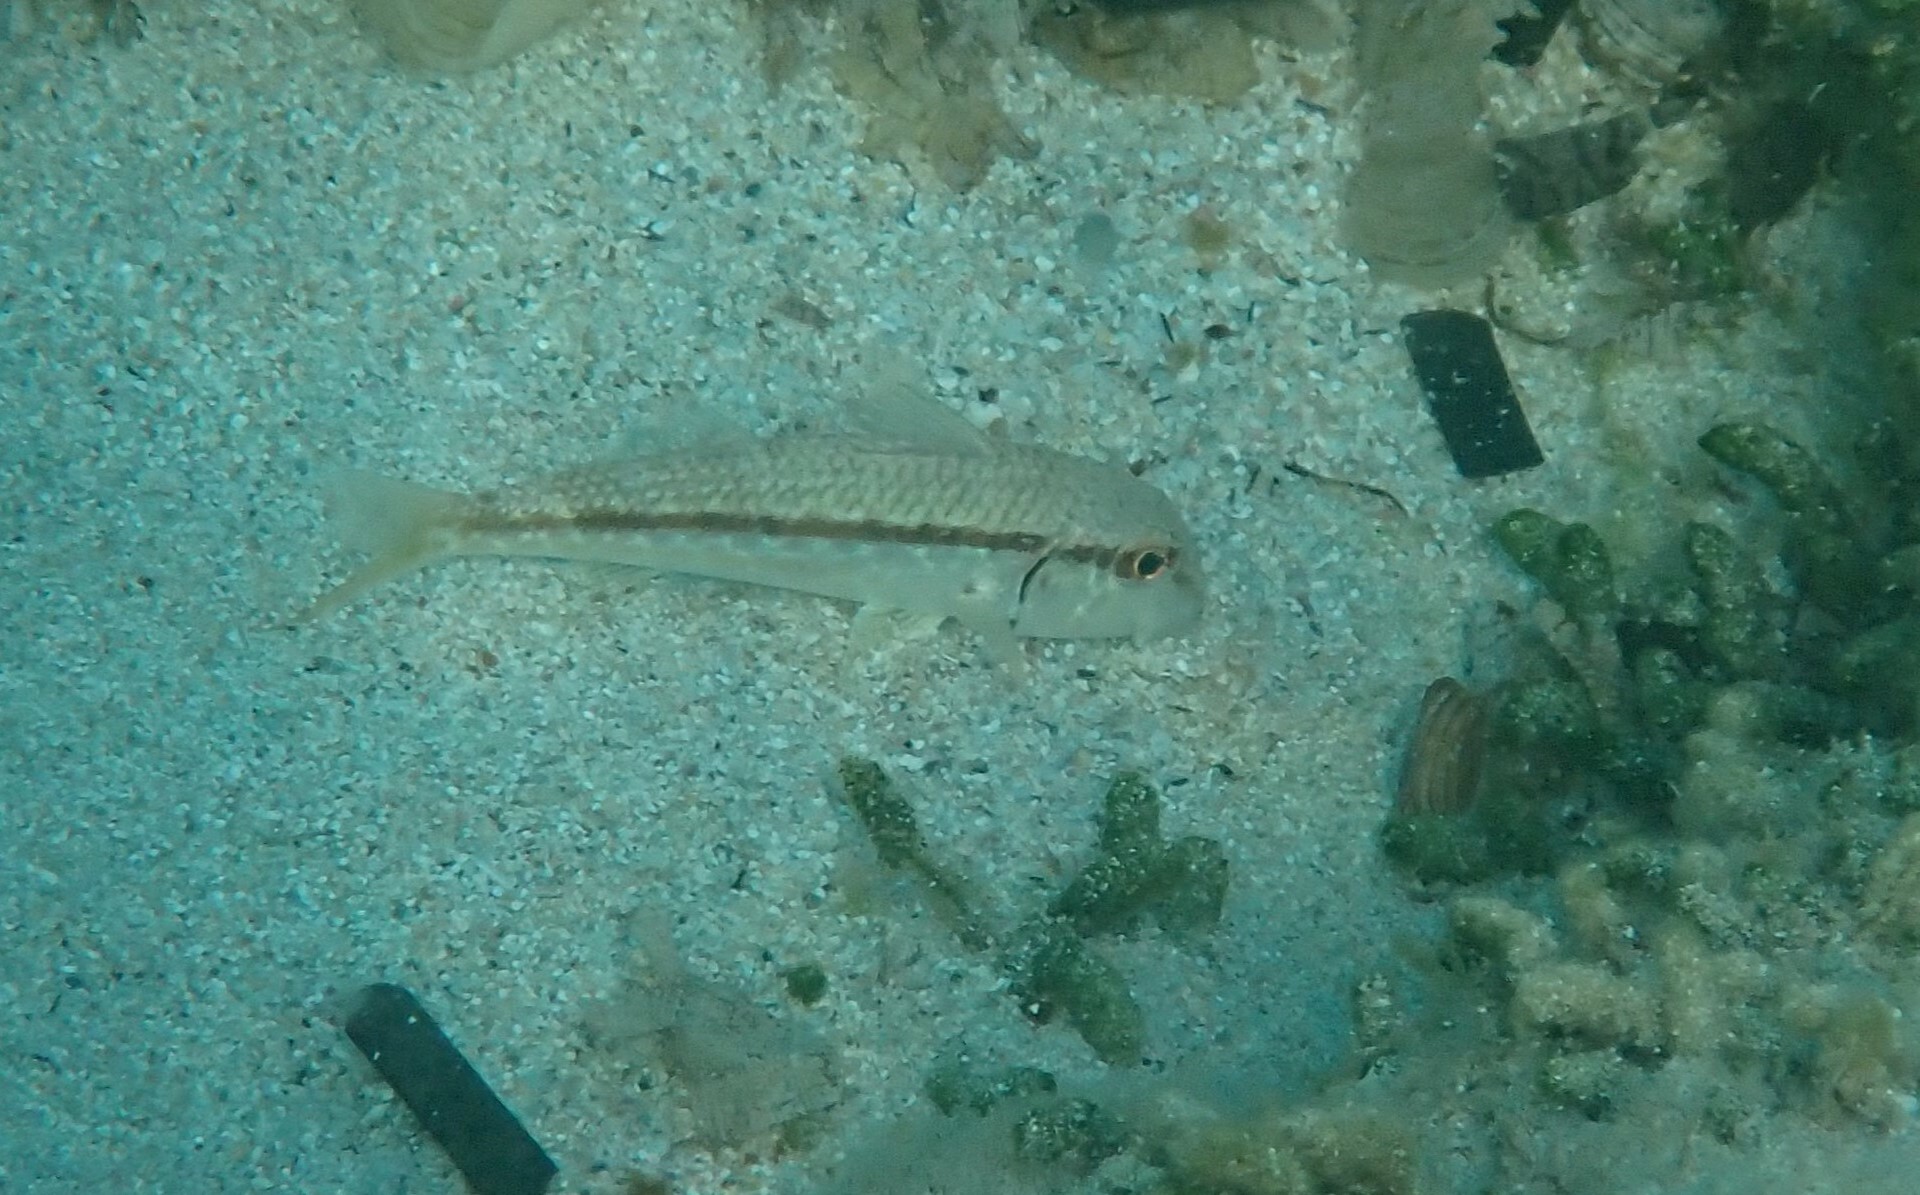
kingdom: Animalia
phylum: Chordata
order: Perciformes
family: Mullidae
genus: Mullus
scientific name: Mullus barbatus
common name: Blunt-snouted mullet
